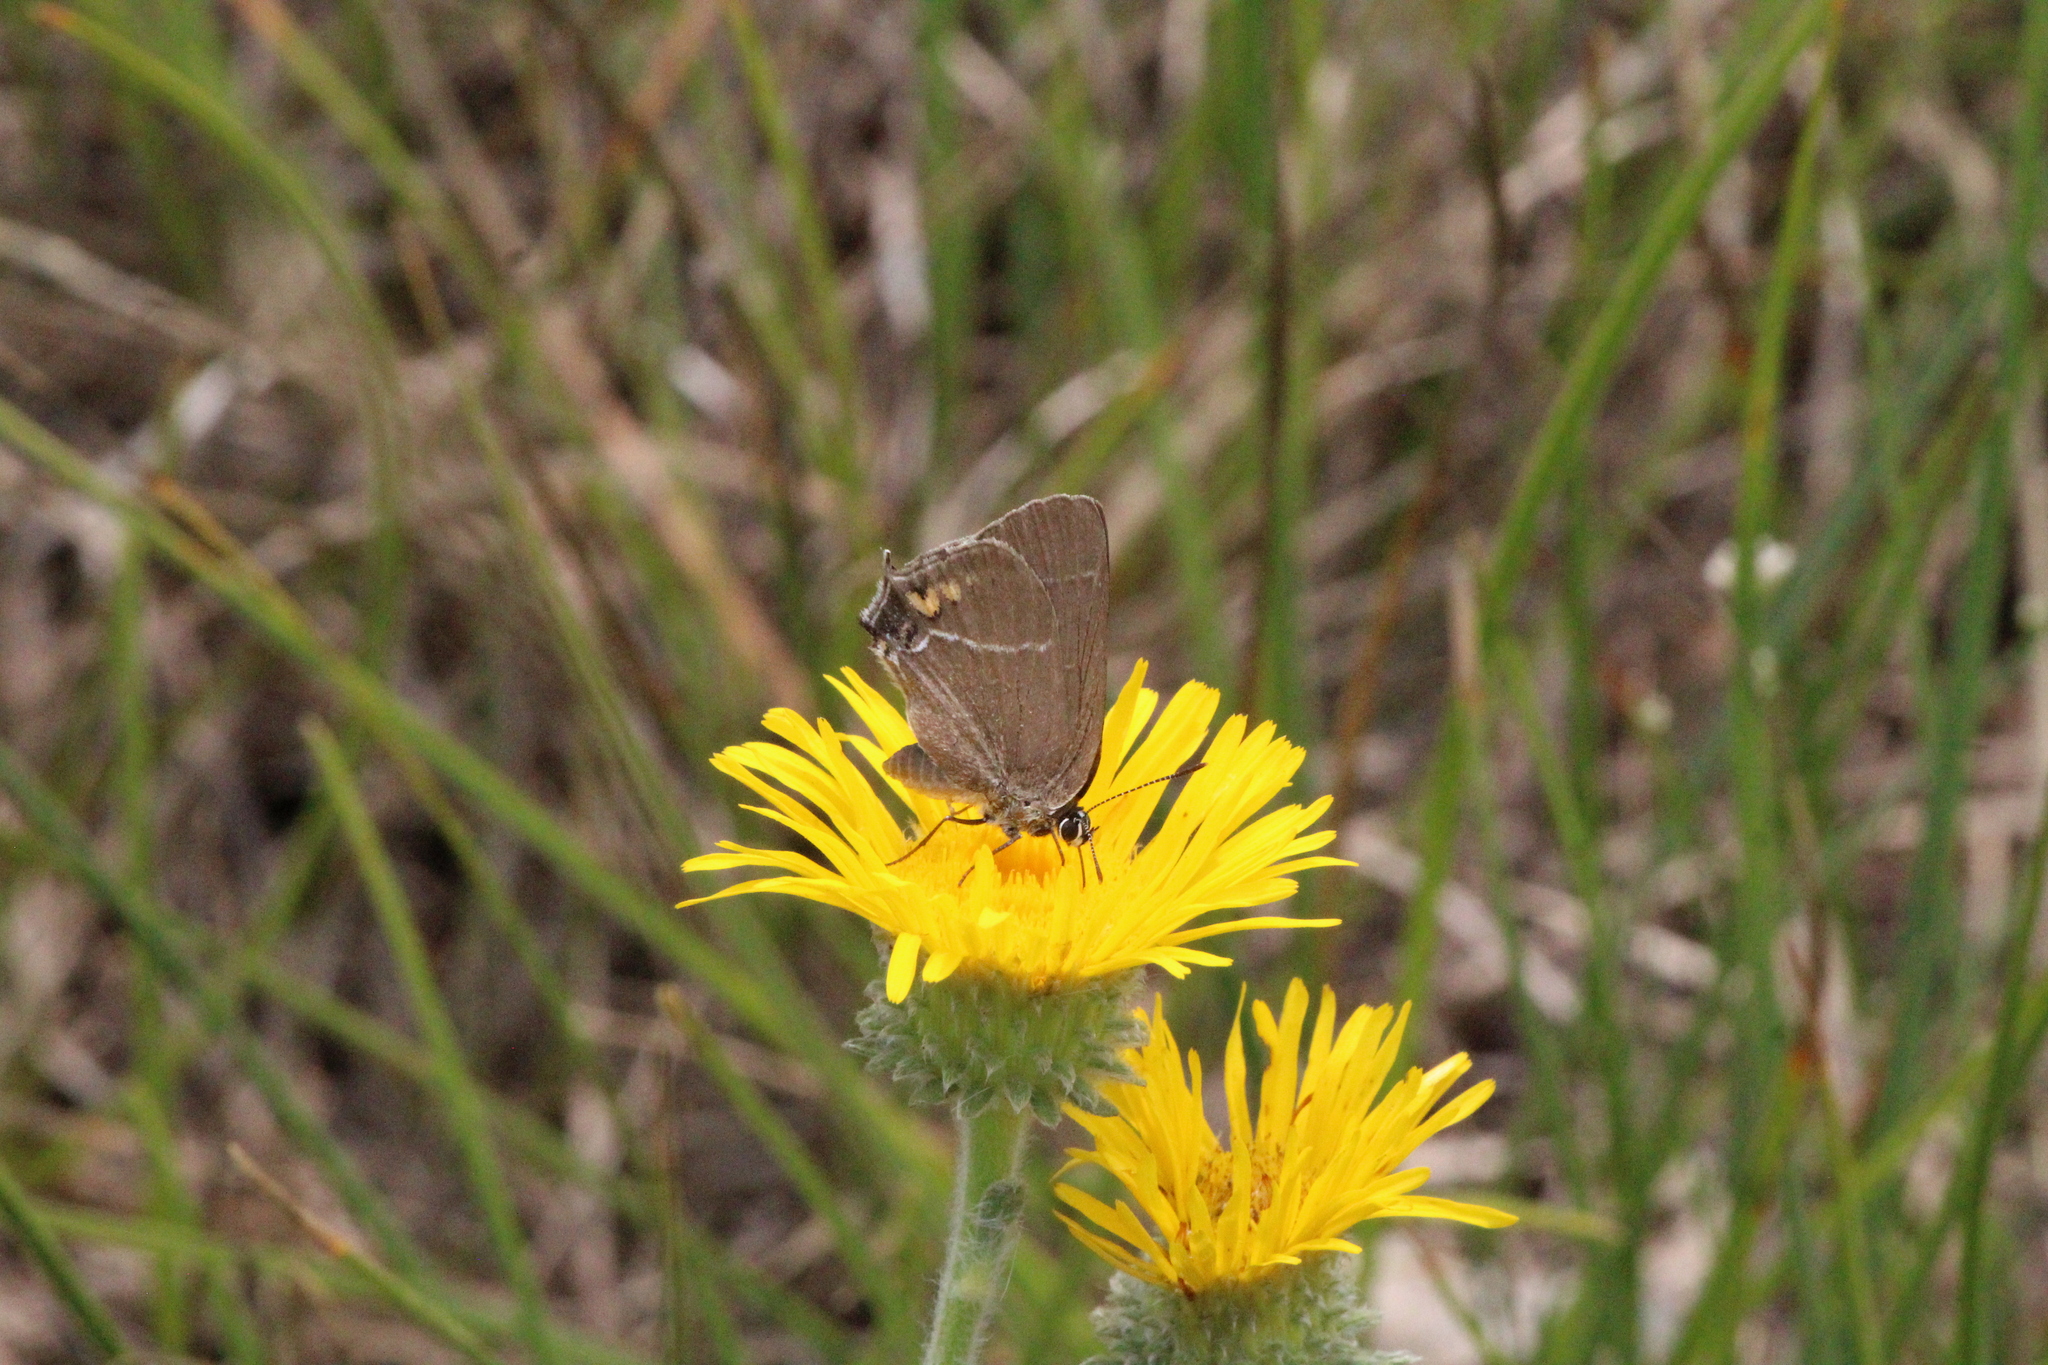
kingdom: Animalia
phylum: Arthropoda
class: Insecta
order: Lepidoptera
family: Lycaenidae
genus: Tuttiola
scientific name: Tuttiola spini
